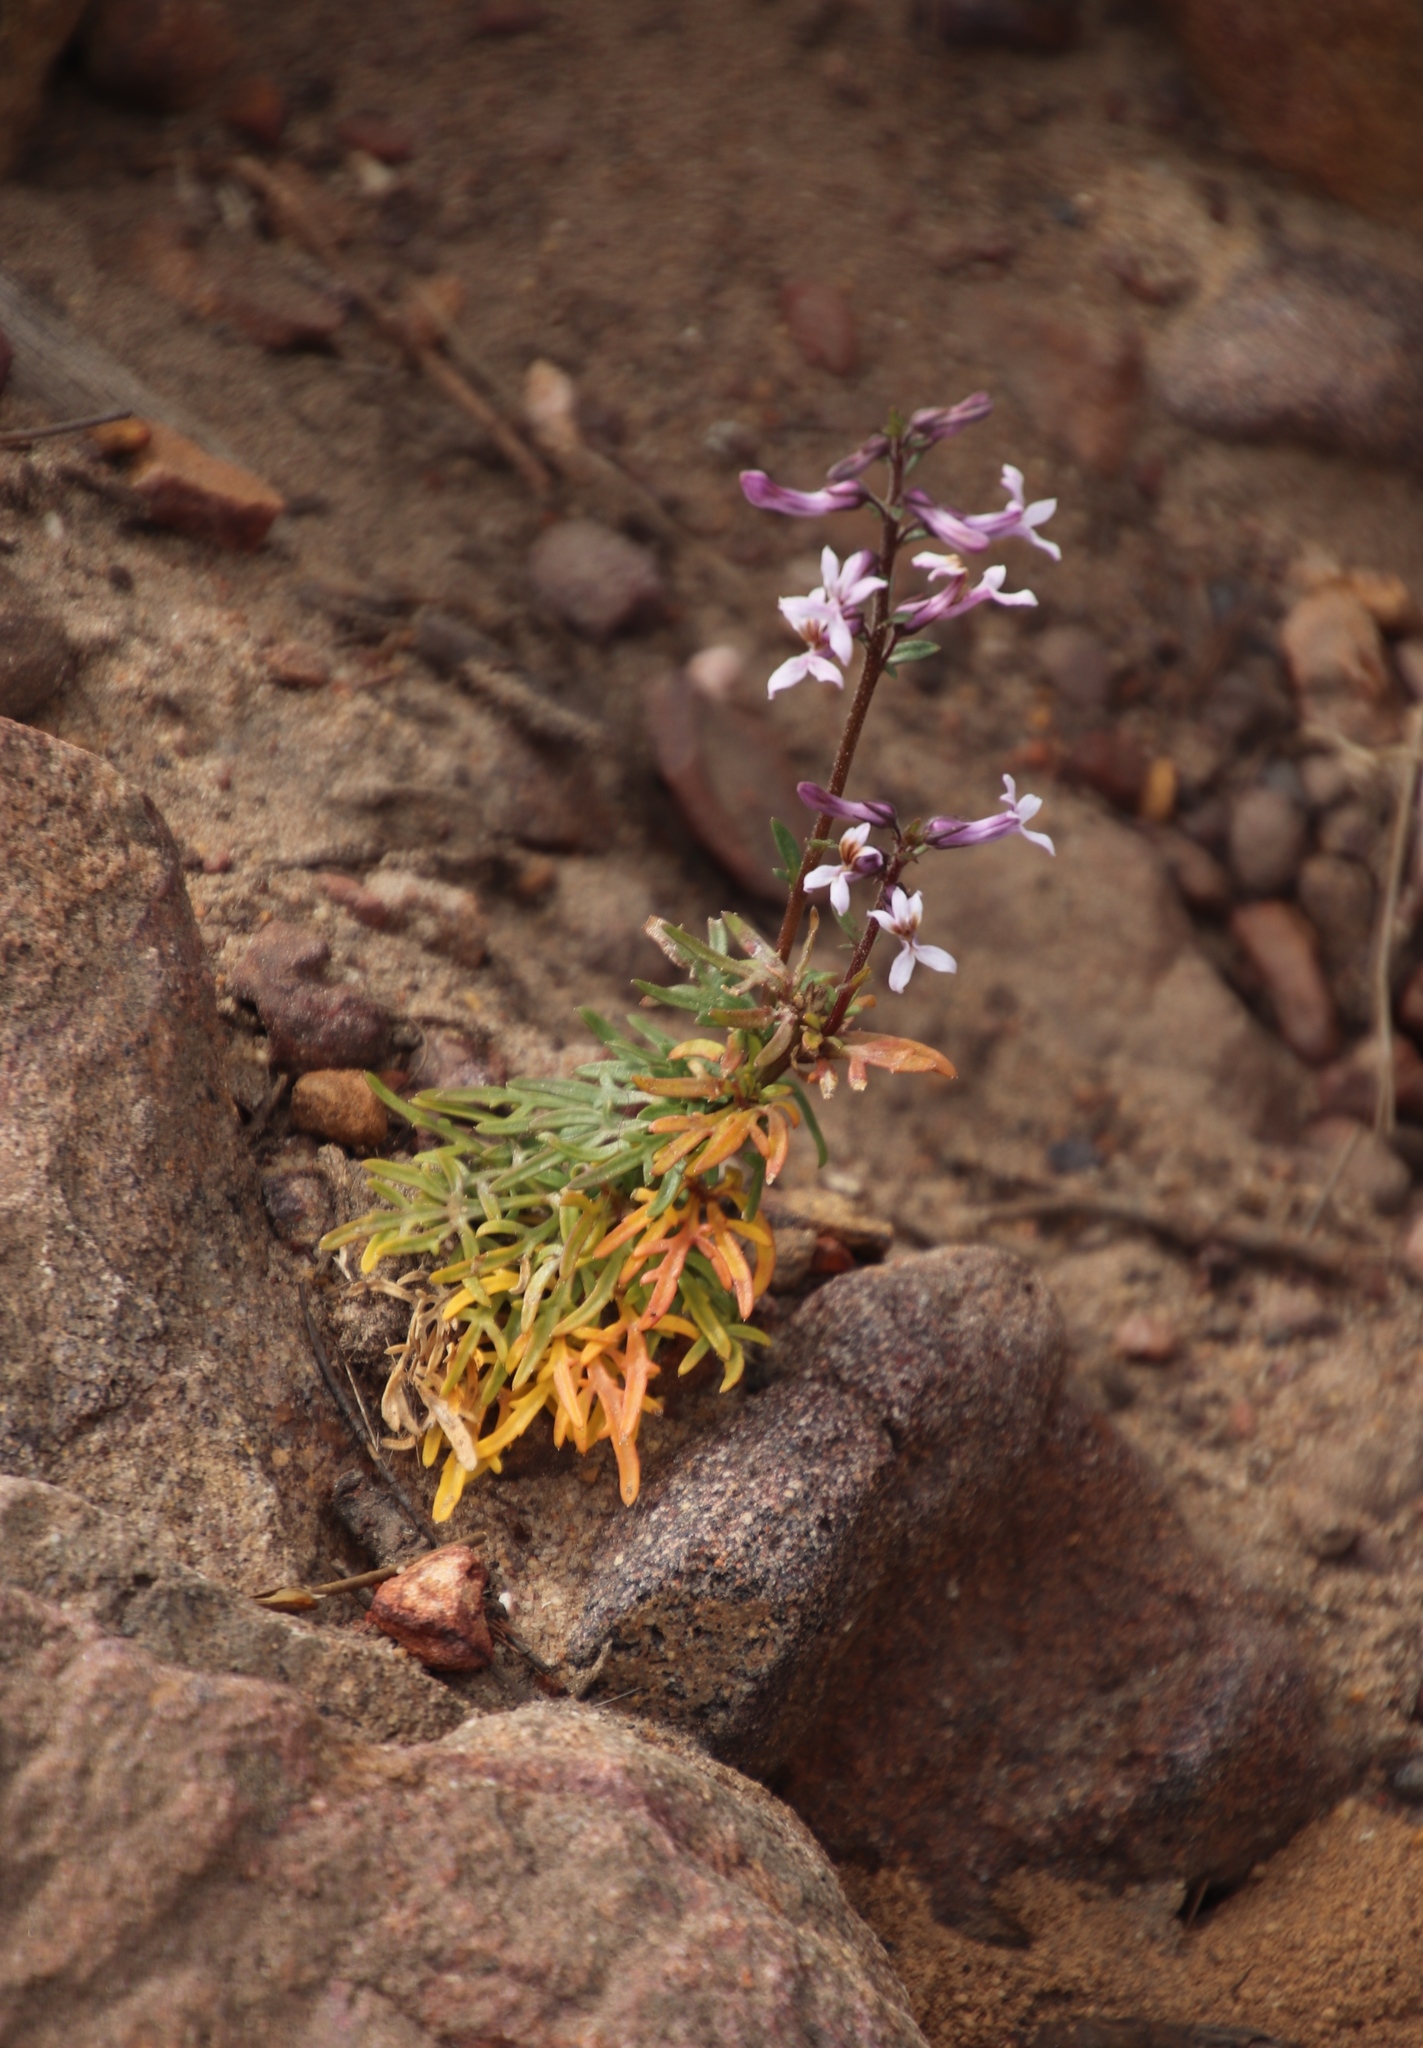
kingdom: Plantae
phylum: Tracheophyta
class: Magnoliopsida
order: Asterales
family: Campanulaceae
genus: Cyphia
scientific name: Cyphia bulbosa
